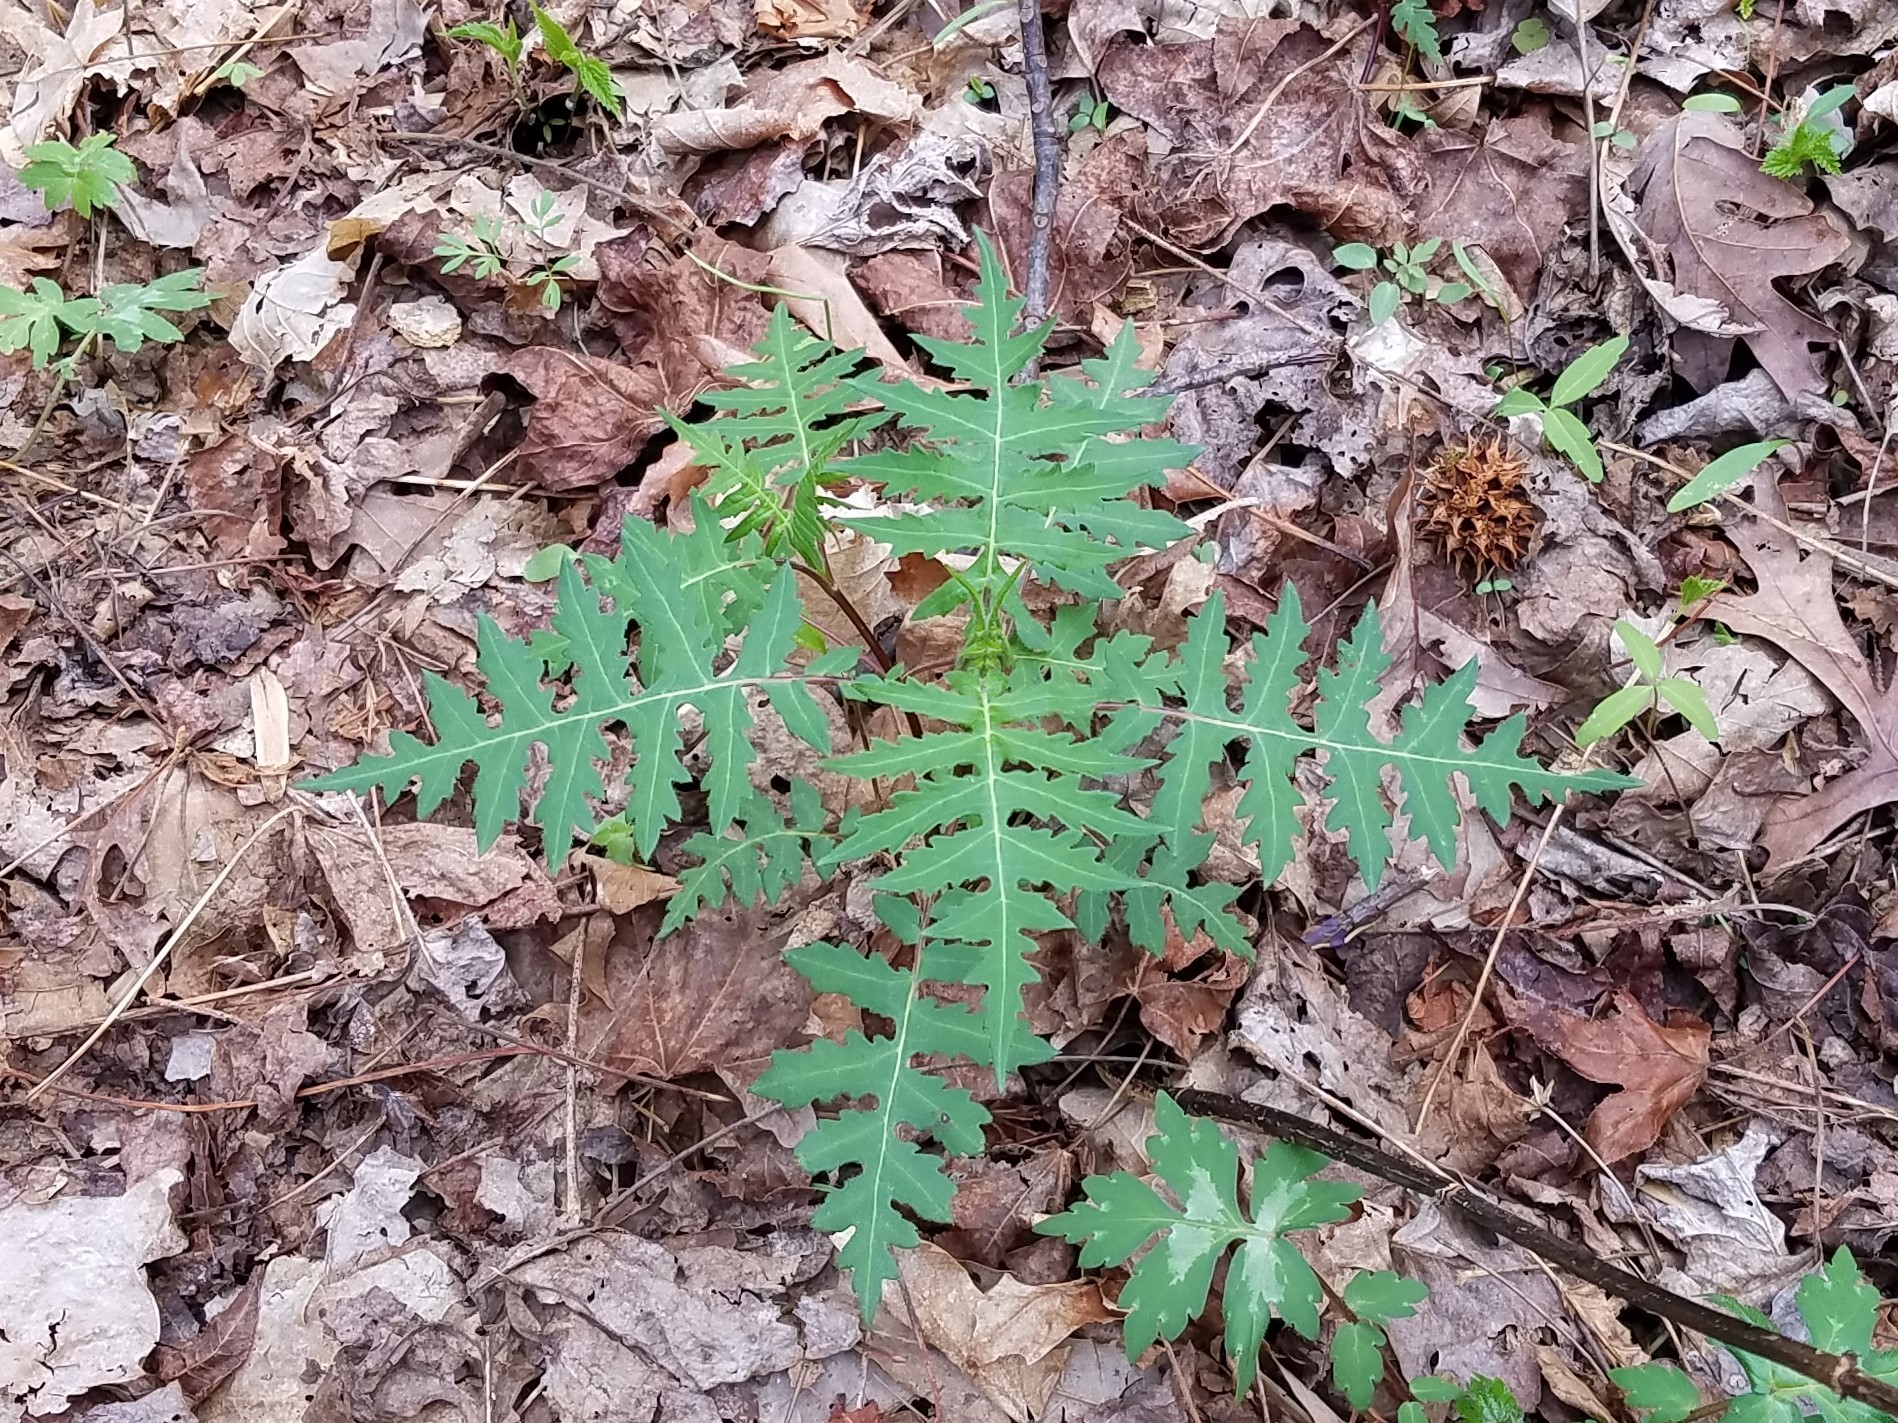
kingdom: Plantae
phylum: Tracheophyta
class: Magnoliopsida
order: Asterales
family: Asteraceae
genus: Polymnia
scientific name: Polymnia laevigata
